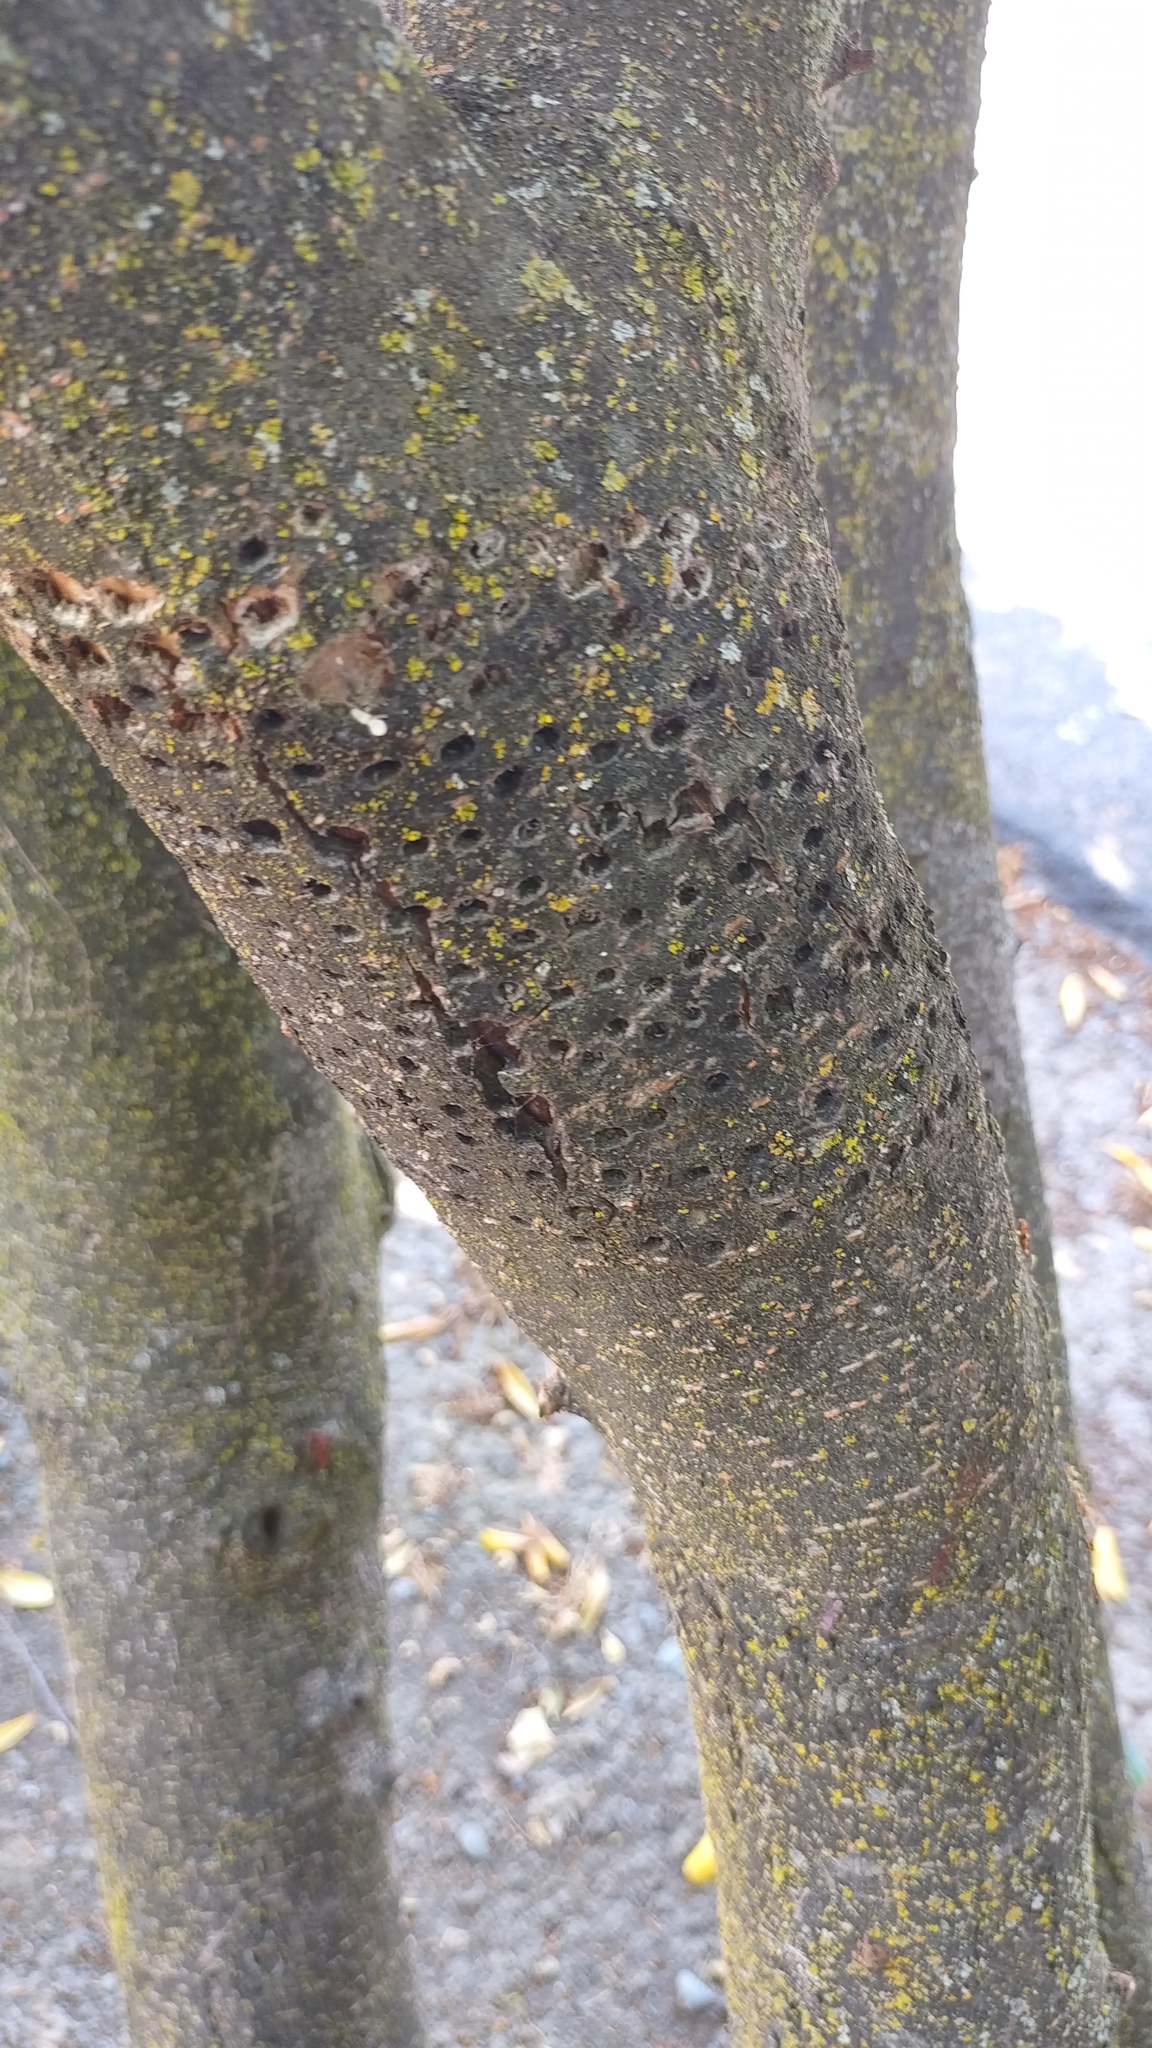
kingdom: Animalia
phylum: Chordata
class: Aves
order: Piciformes
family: Picidae
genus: Sphyrapicus
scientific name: Sphyrapicus
